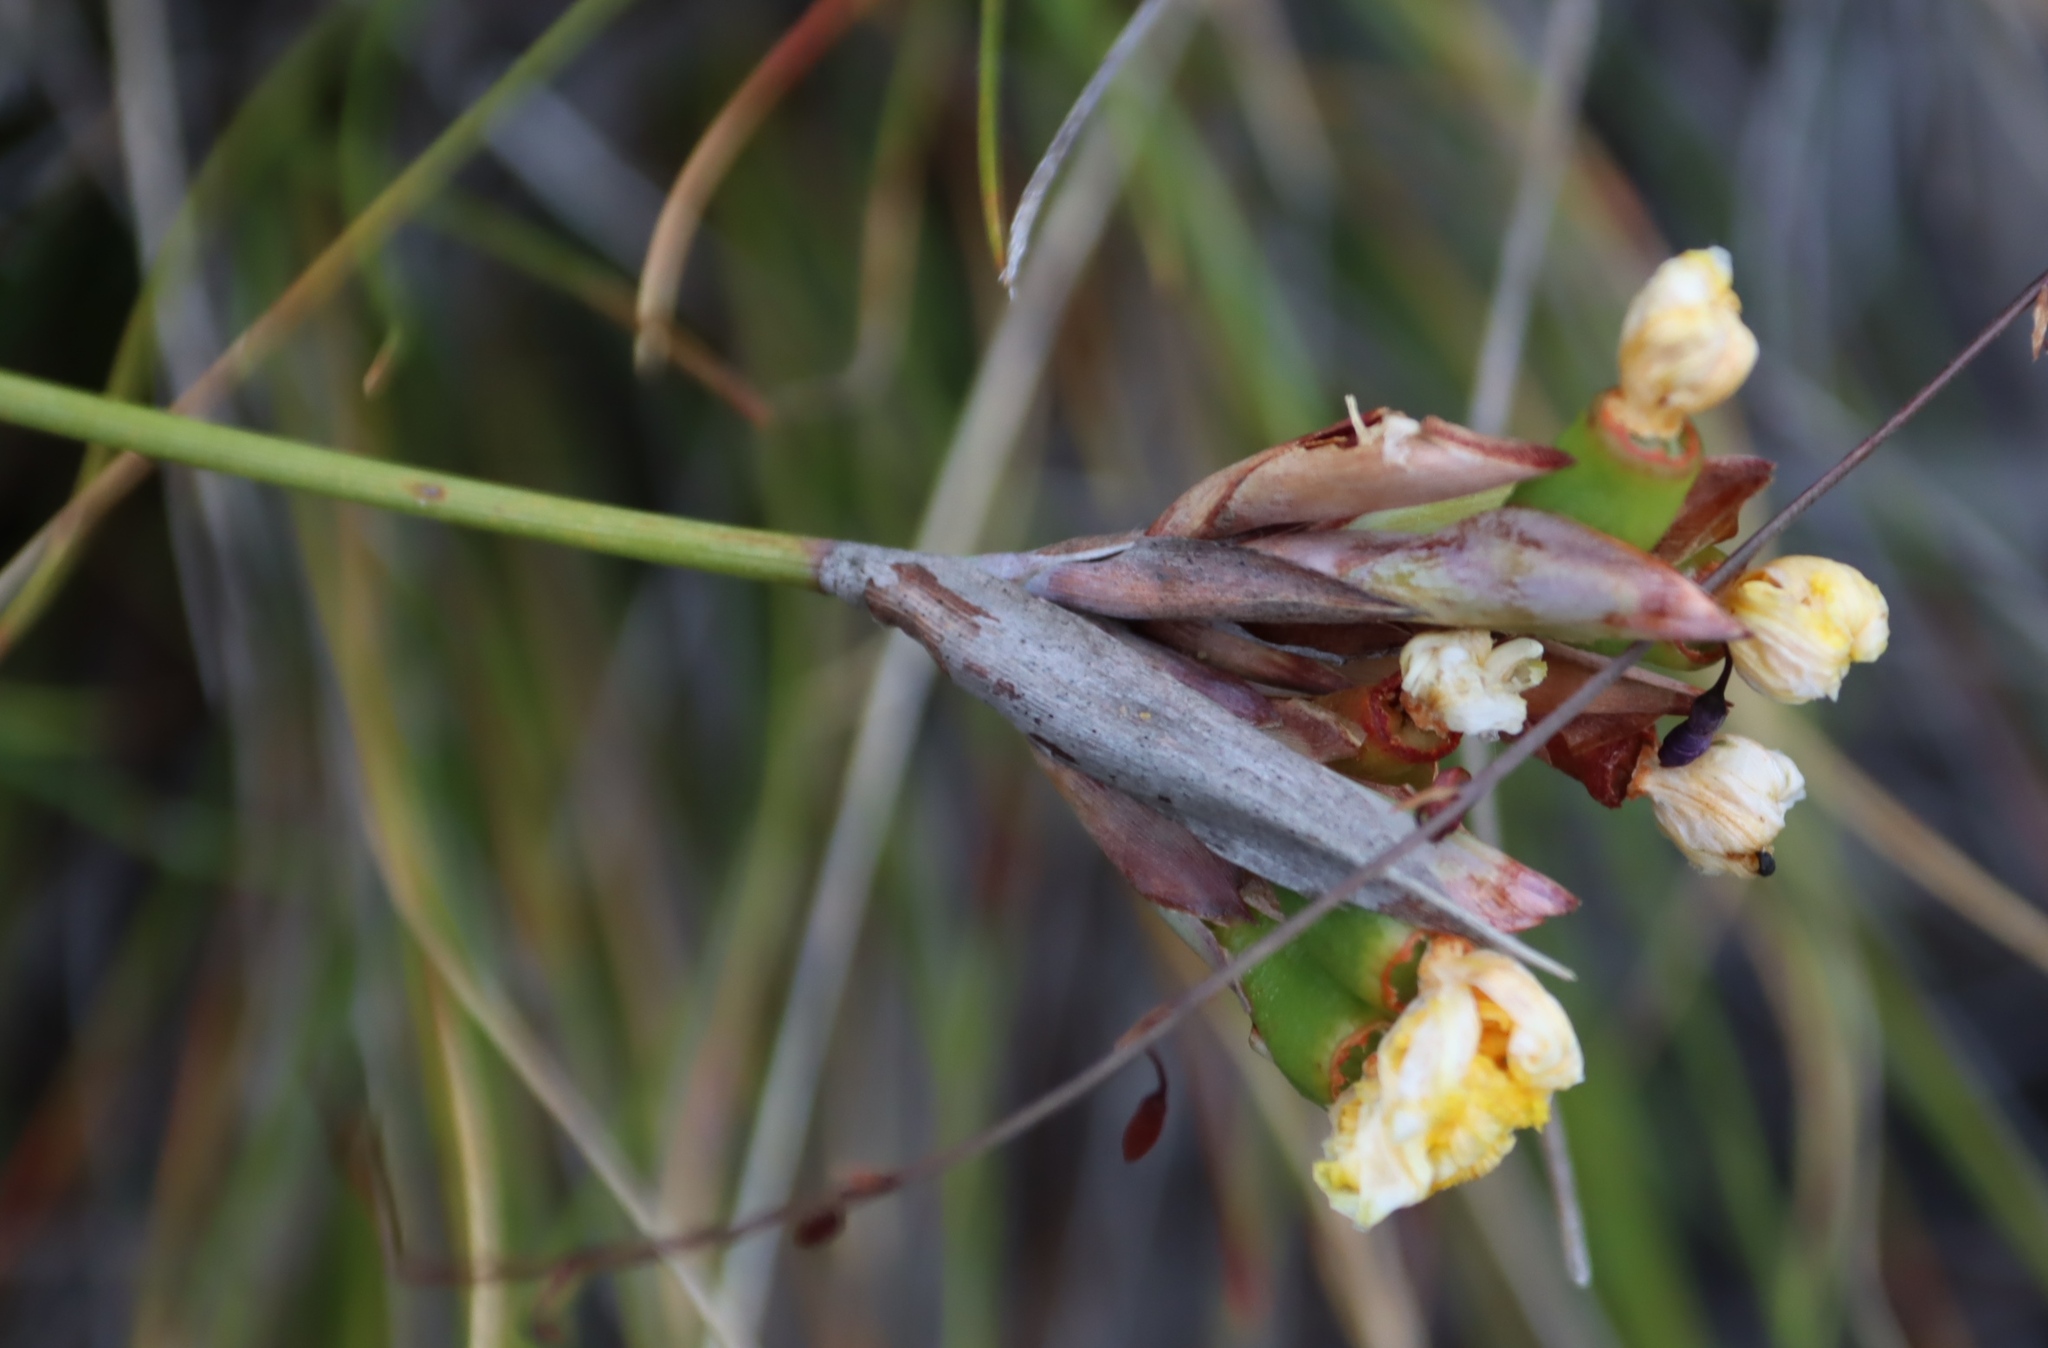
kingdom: Plantae
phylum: Tracheophyta
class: Liliopsida
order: Asparagales
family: Iridaceae
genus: Bobartia
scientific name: Bobartia macrospatha
